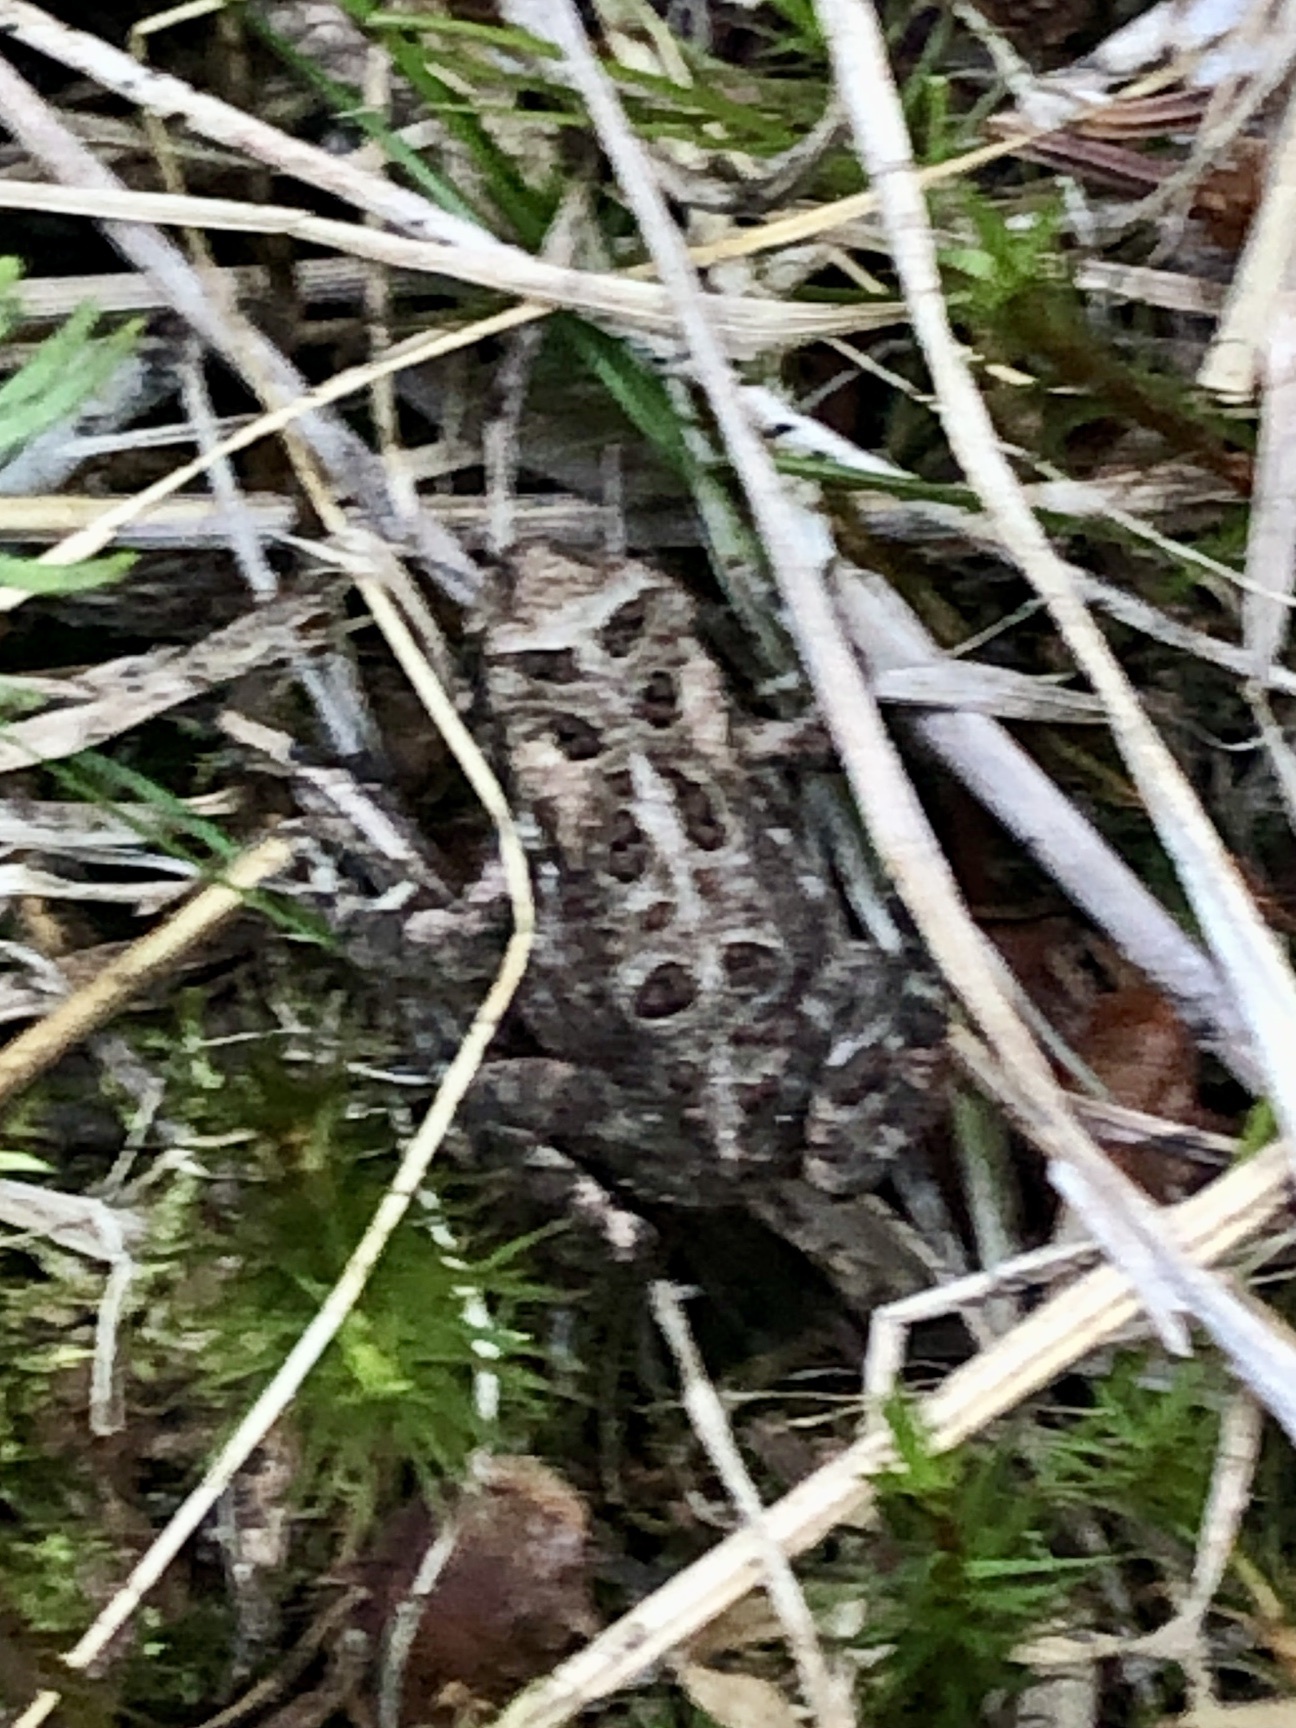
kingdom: Animalia
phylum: Chordata
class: Amphibia
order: Anura
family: Bufonidae
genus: Anaxyrus
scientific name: Anaxyrus americanus
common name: American toad
